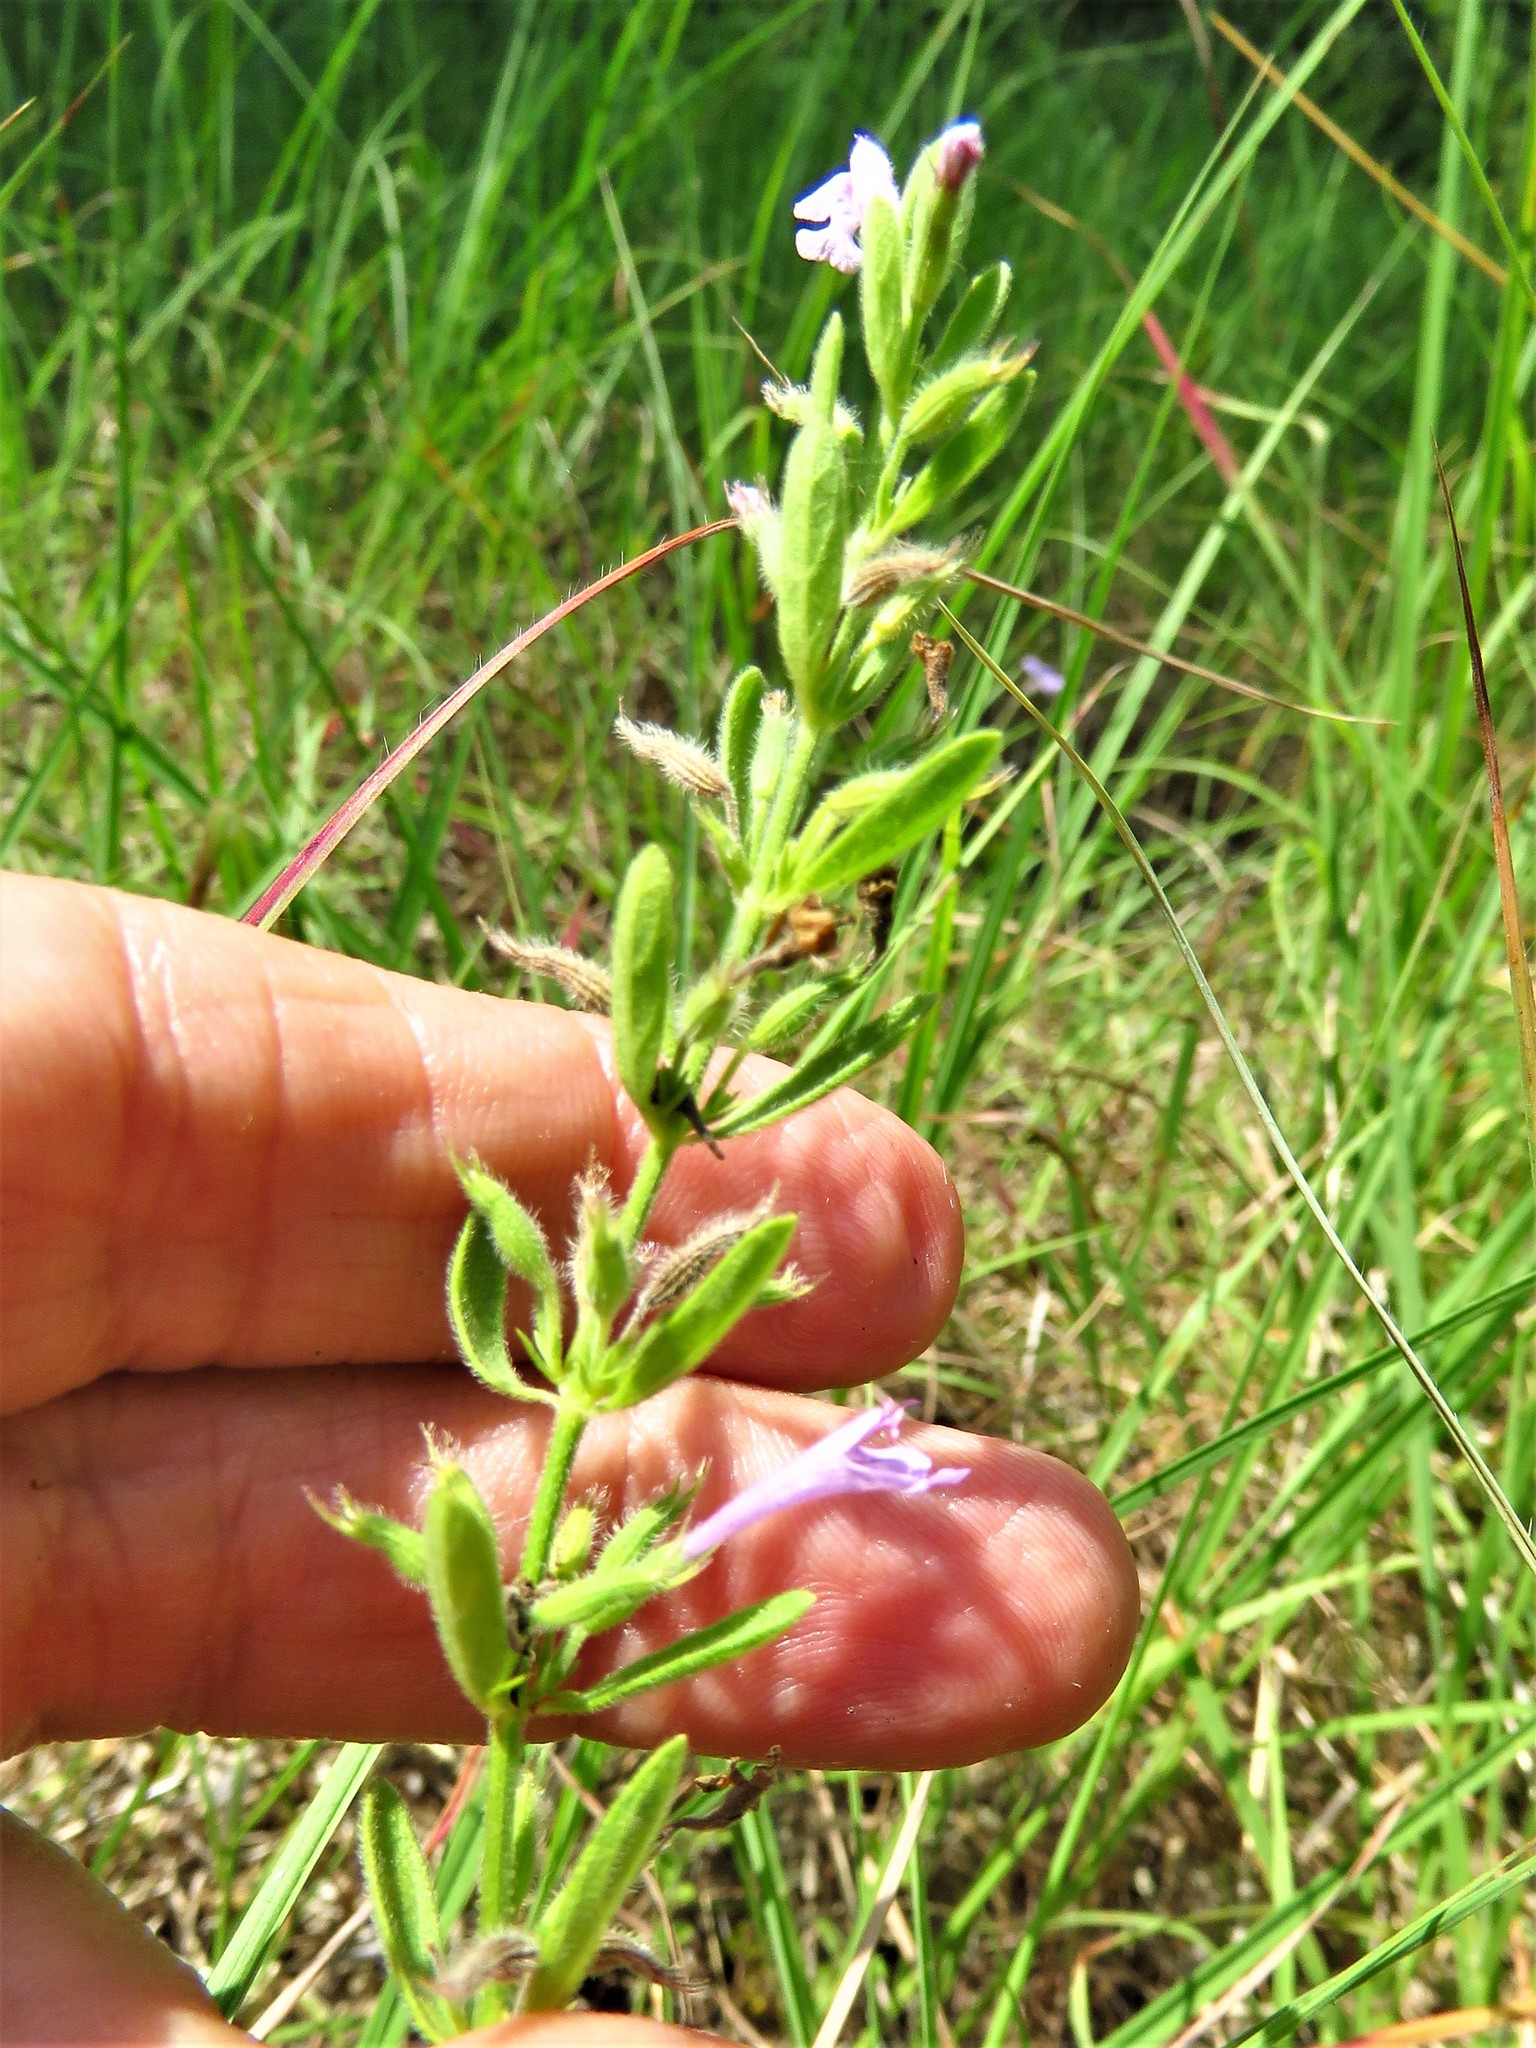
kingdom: Plantae
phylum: Tracheophyta
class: Magnoliopsida
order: Lamiales
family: Lamiaceae
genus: Hedeoma
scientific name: Hedeoma reverchonii
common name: Reverchon's false penny-royal
